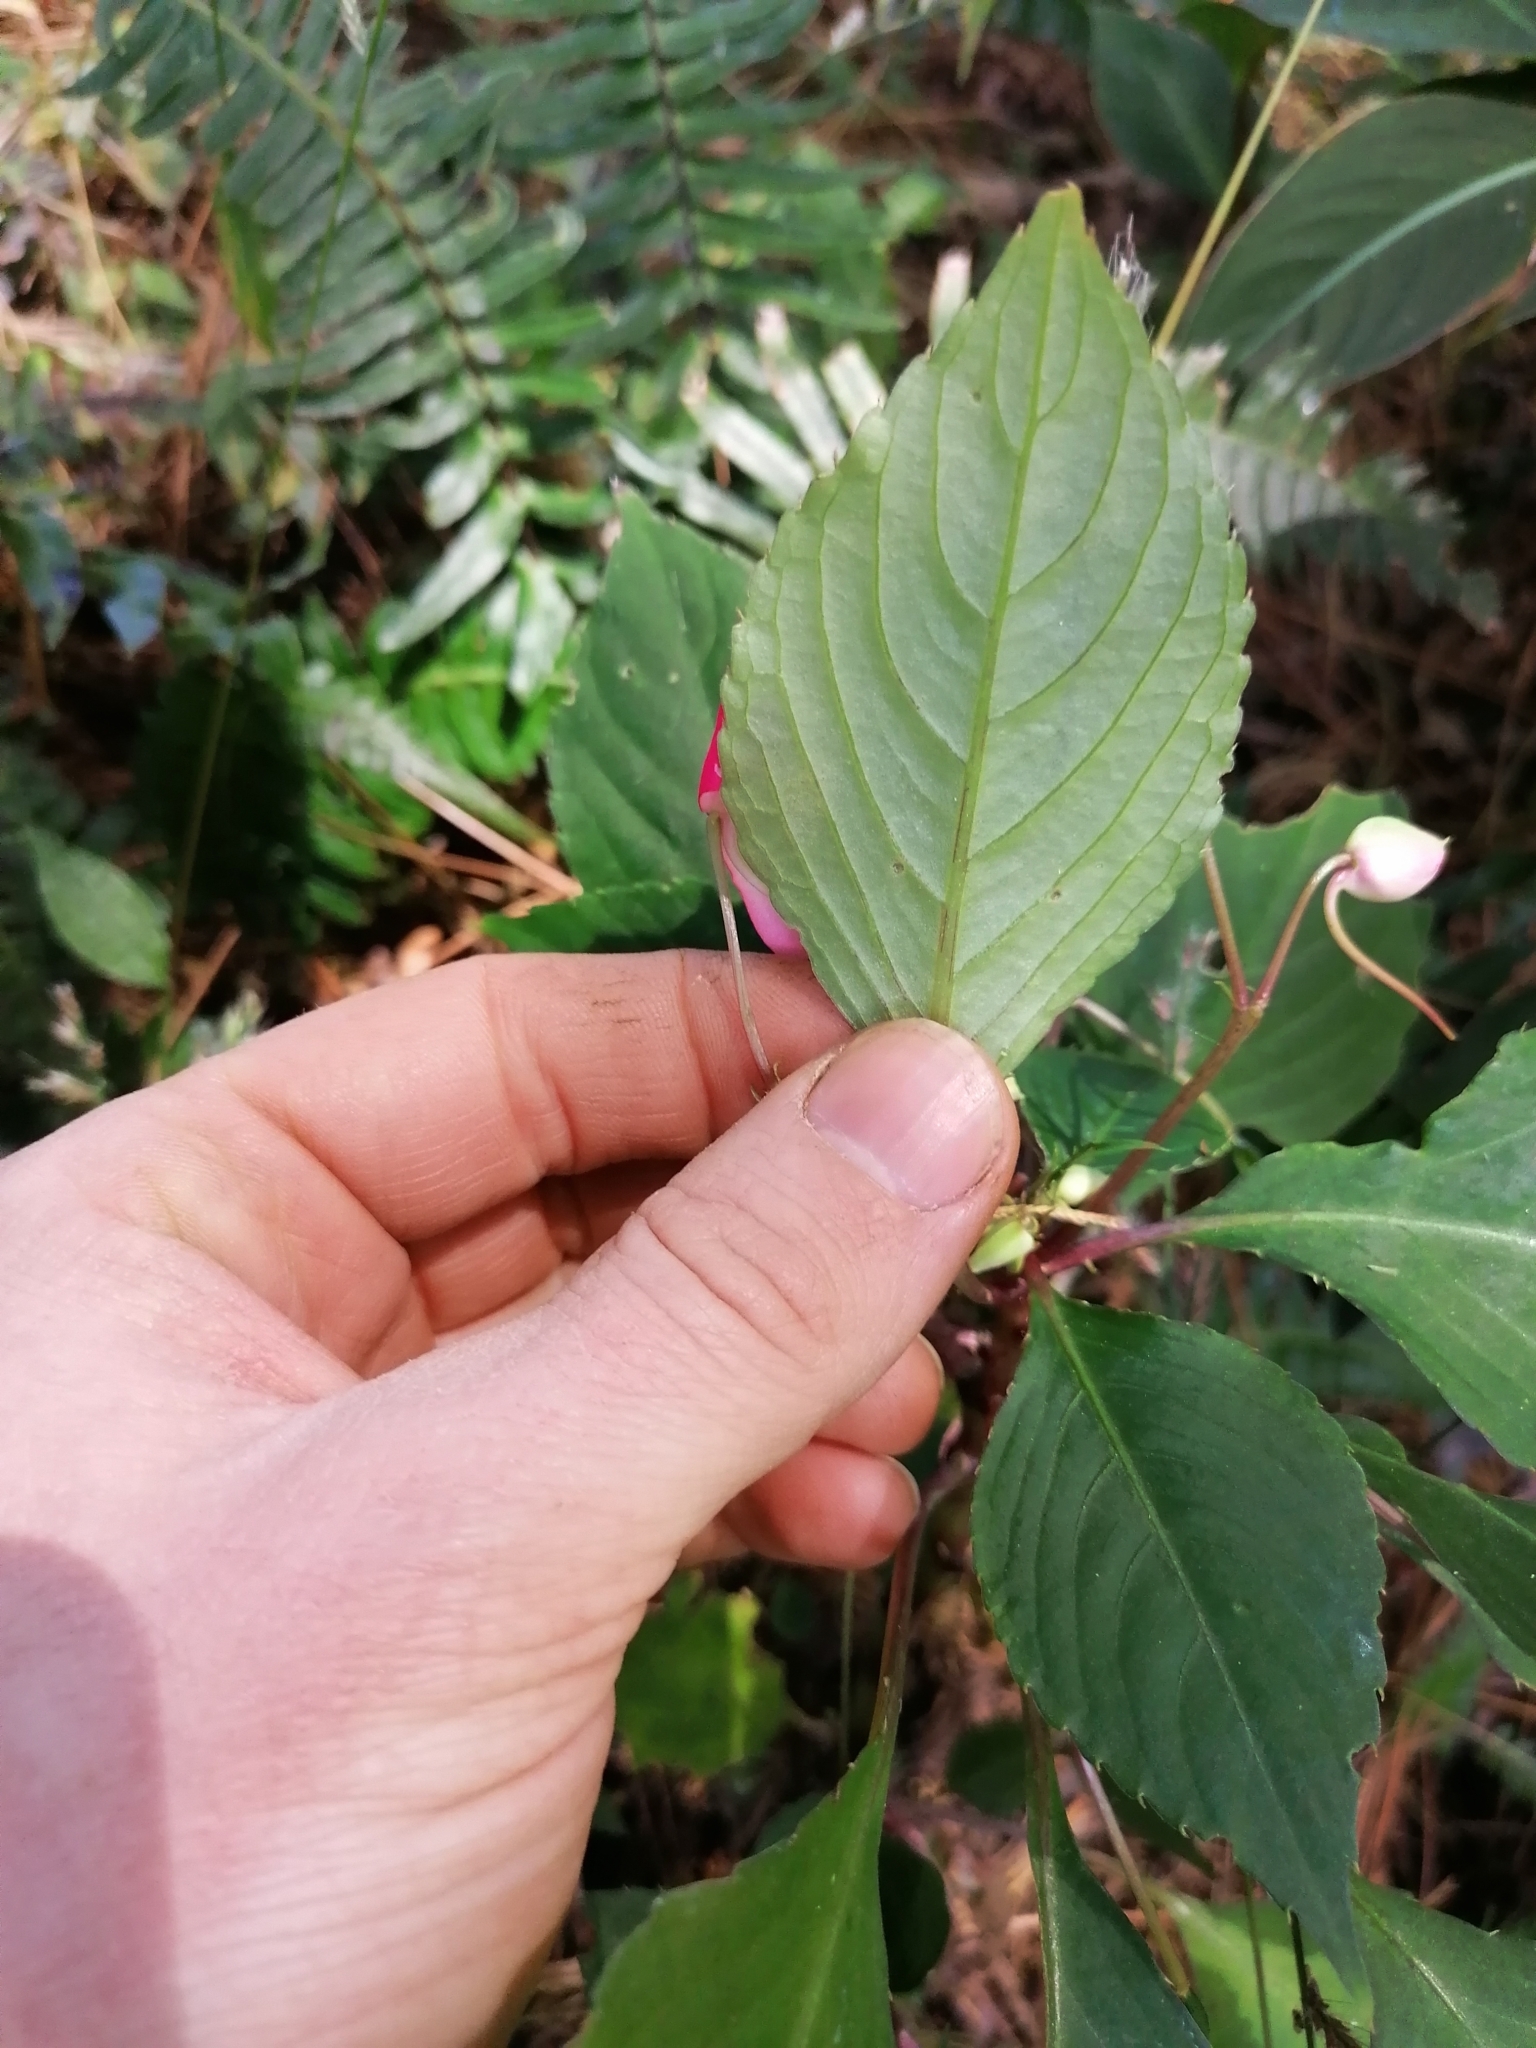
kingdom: Plantae
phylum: Tracheophyta
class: Magnoliopsida
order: Ericales
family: Balsaminaceae
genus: Impatiens
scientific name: Impatiens walleriana
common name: Buzzy lizzy
